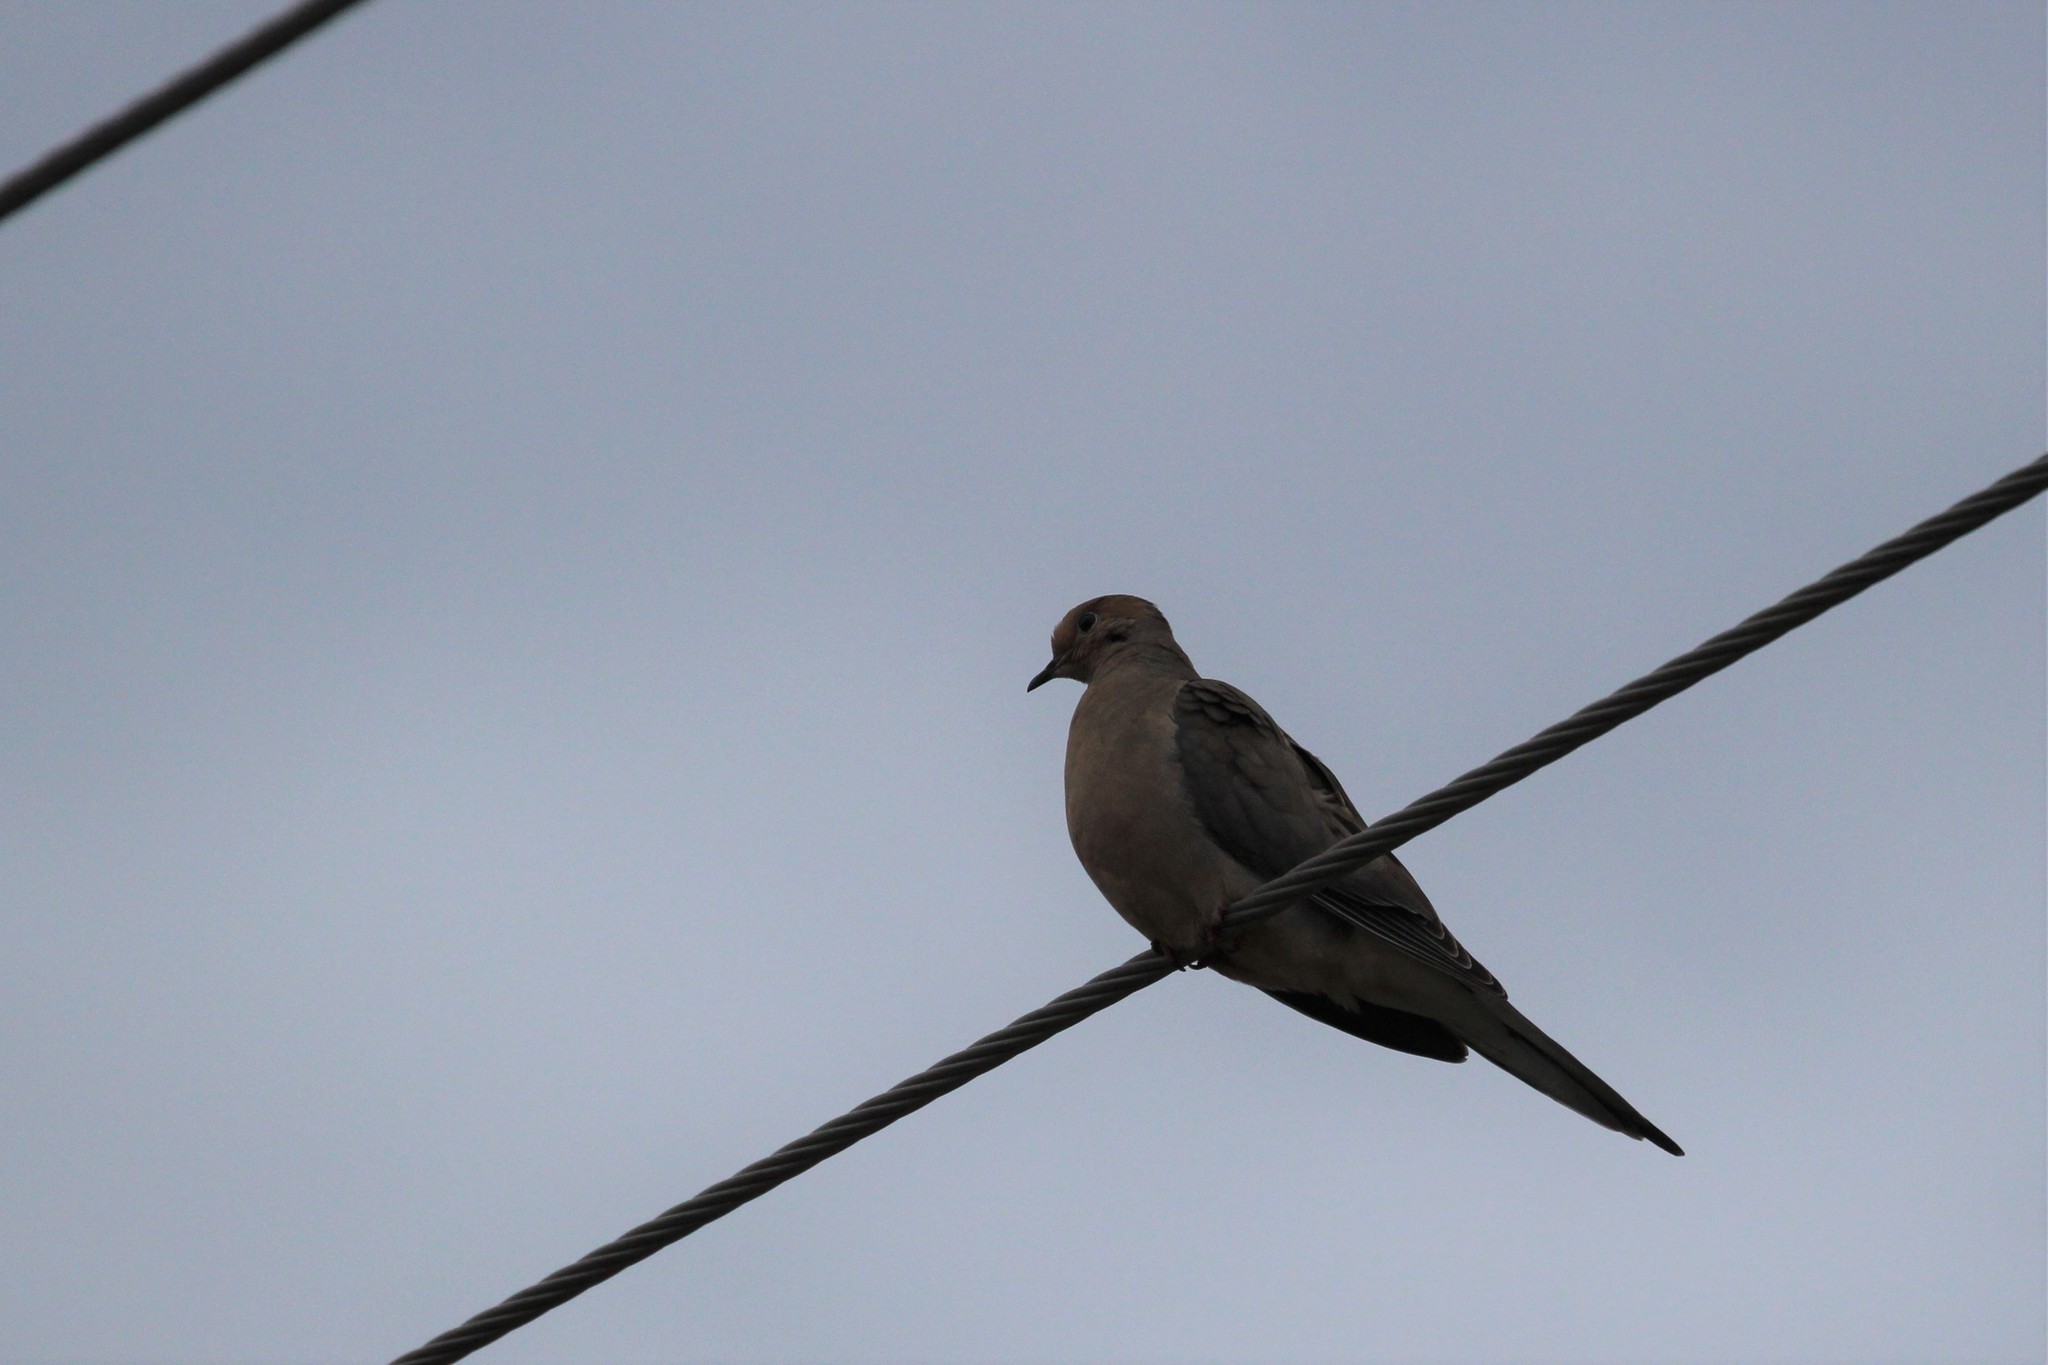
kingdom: Animalia
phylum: Chordata
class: Aves
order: Columbiformes
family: Columbidae
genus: Zenaida
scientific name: Zenaida macroura
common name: Mourning dove
